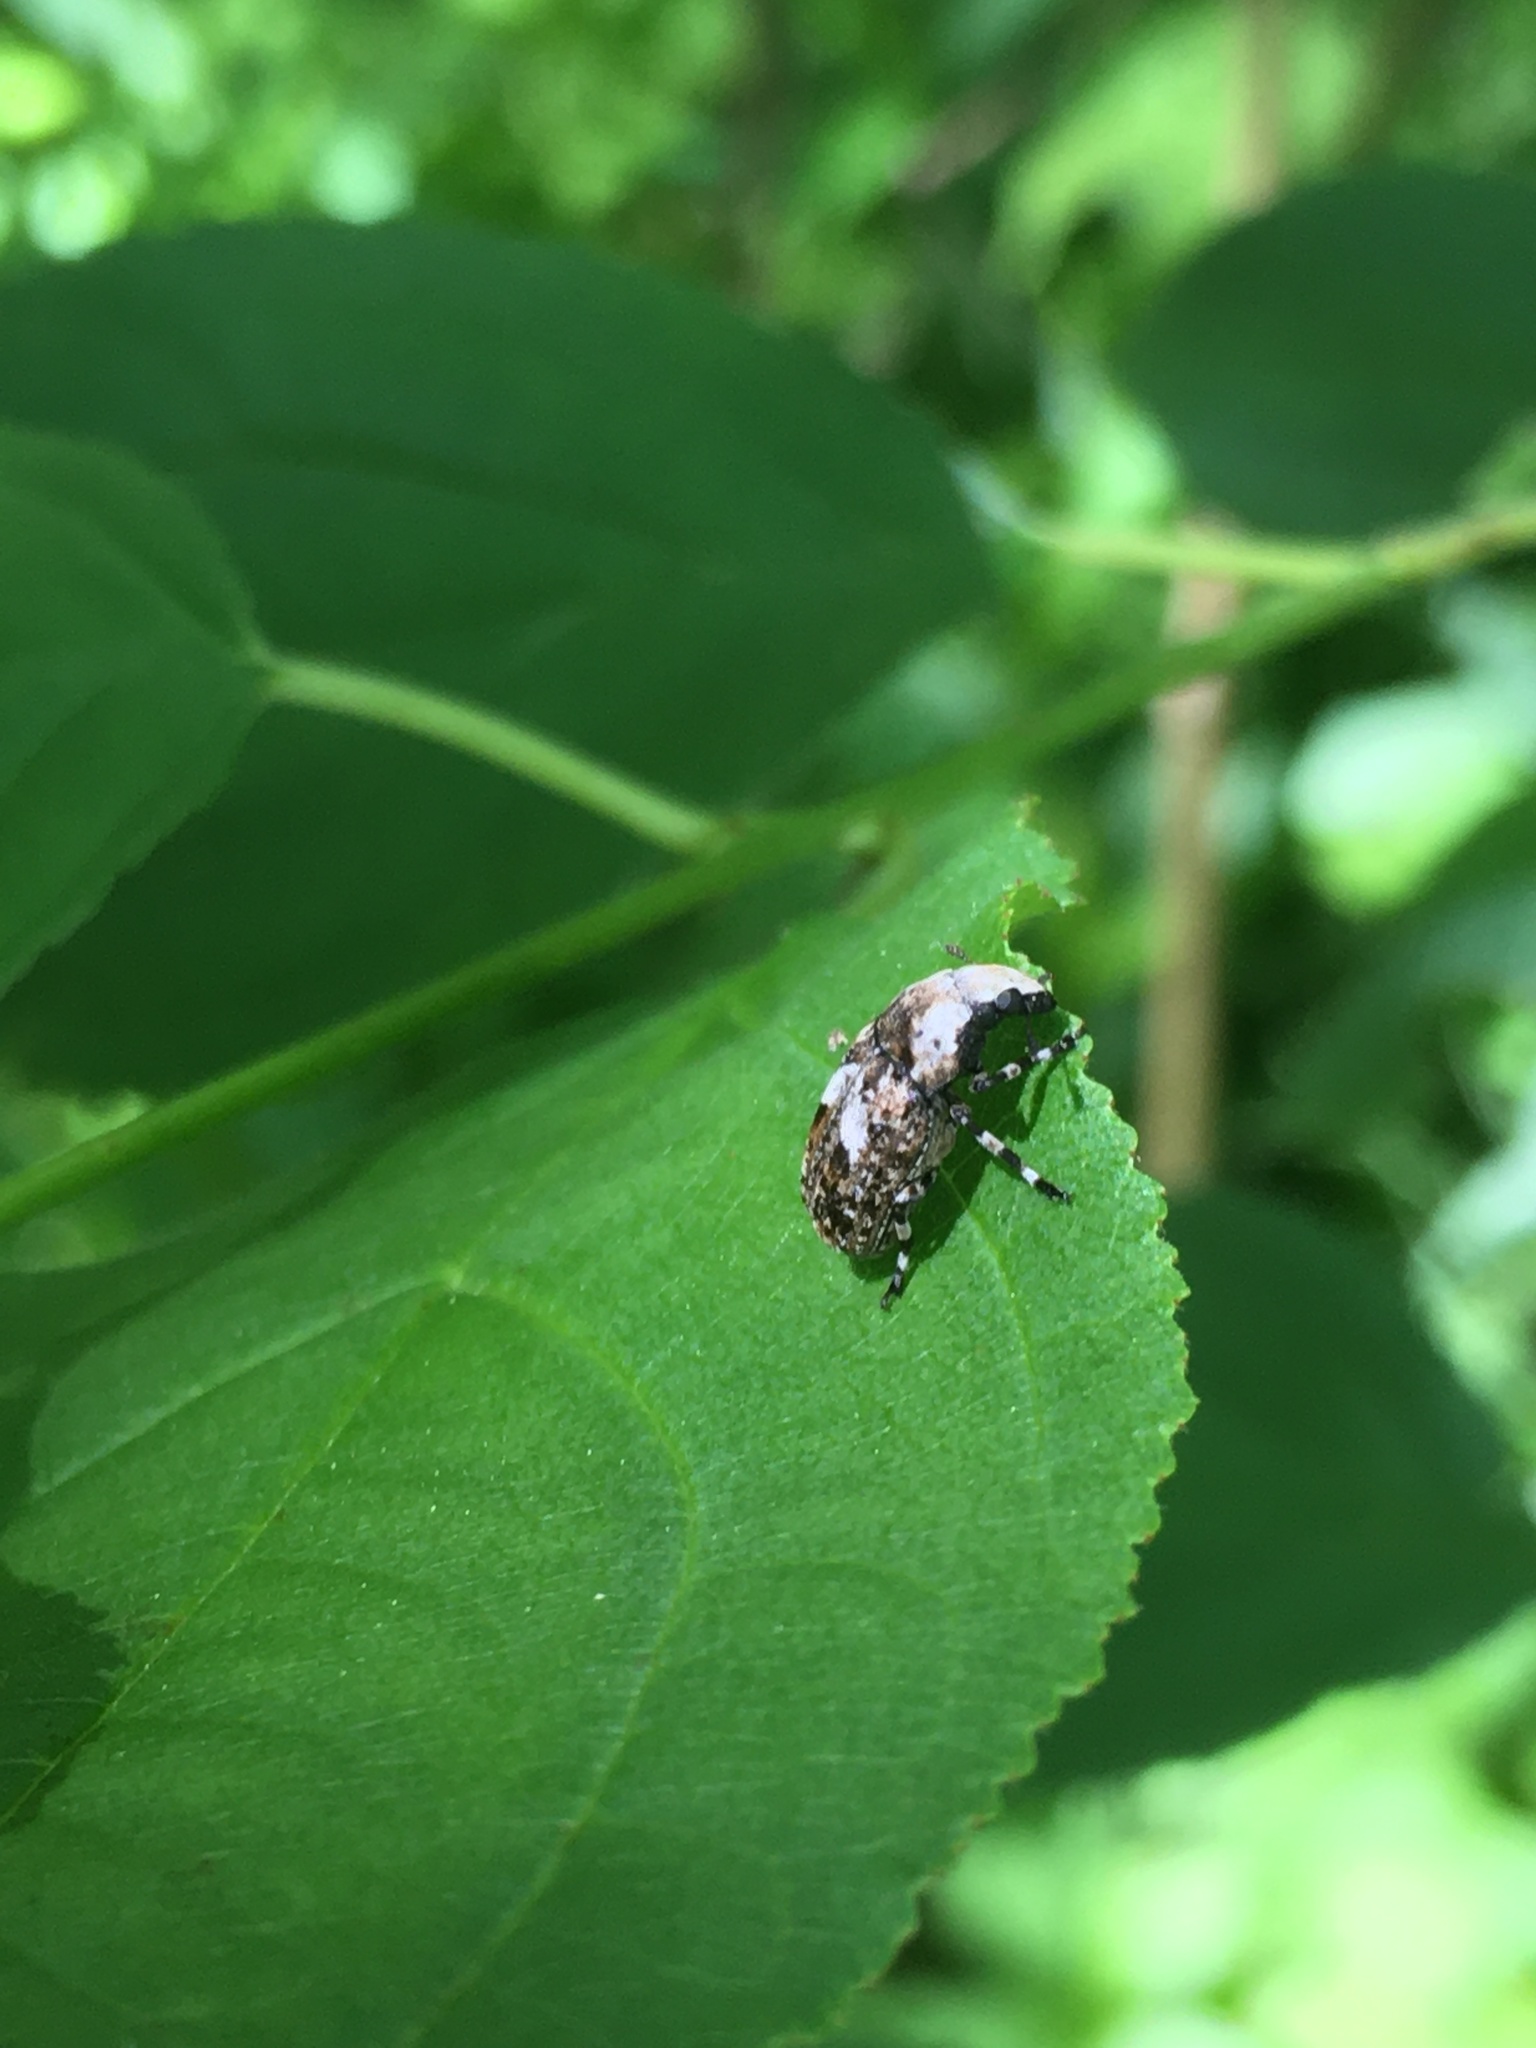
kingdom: Animalia
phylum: Arthropoda
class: Insecta
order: Coleoptera
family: Anthribidae
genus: Euparius
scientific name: Euparius marmoreus
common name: Marbled fungus weevil
